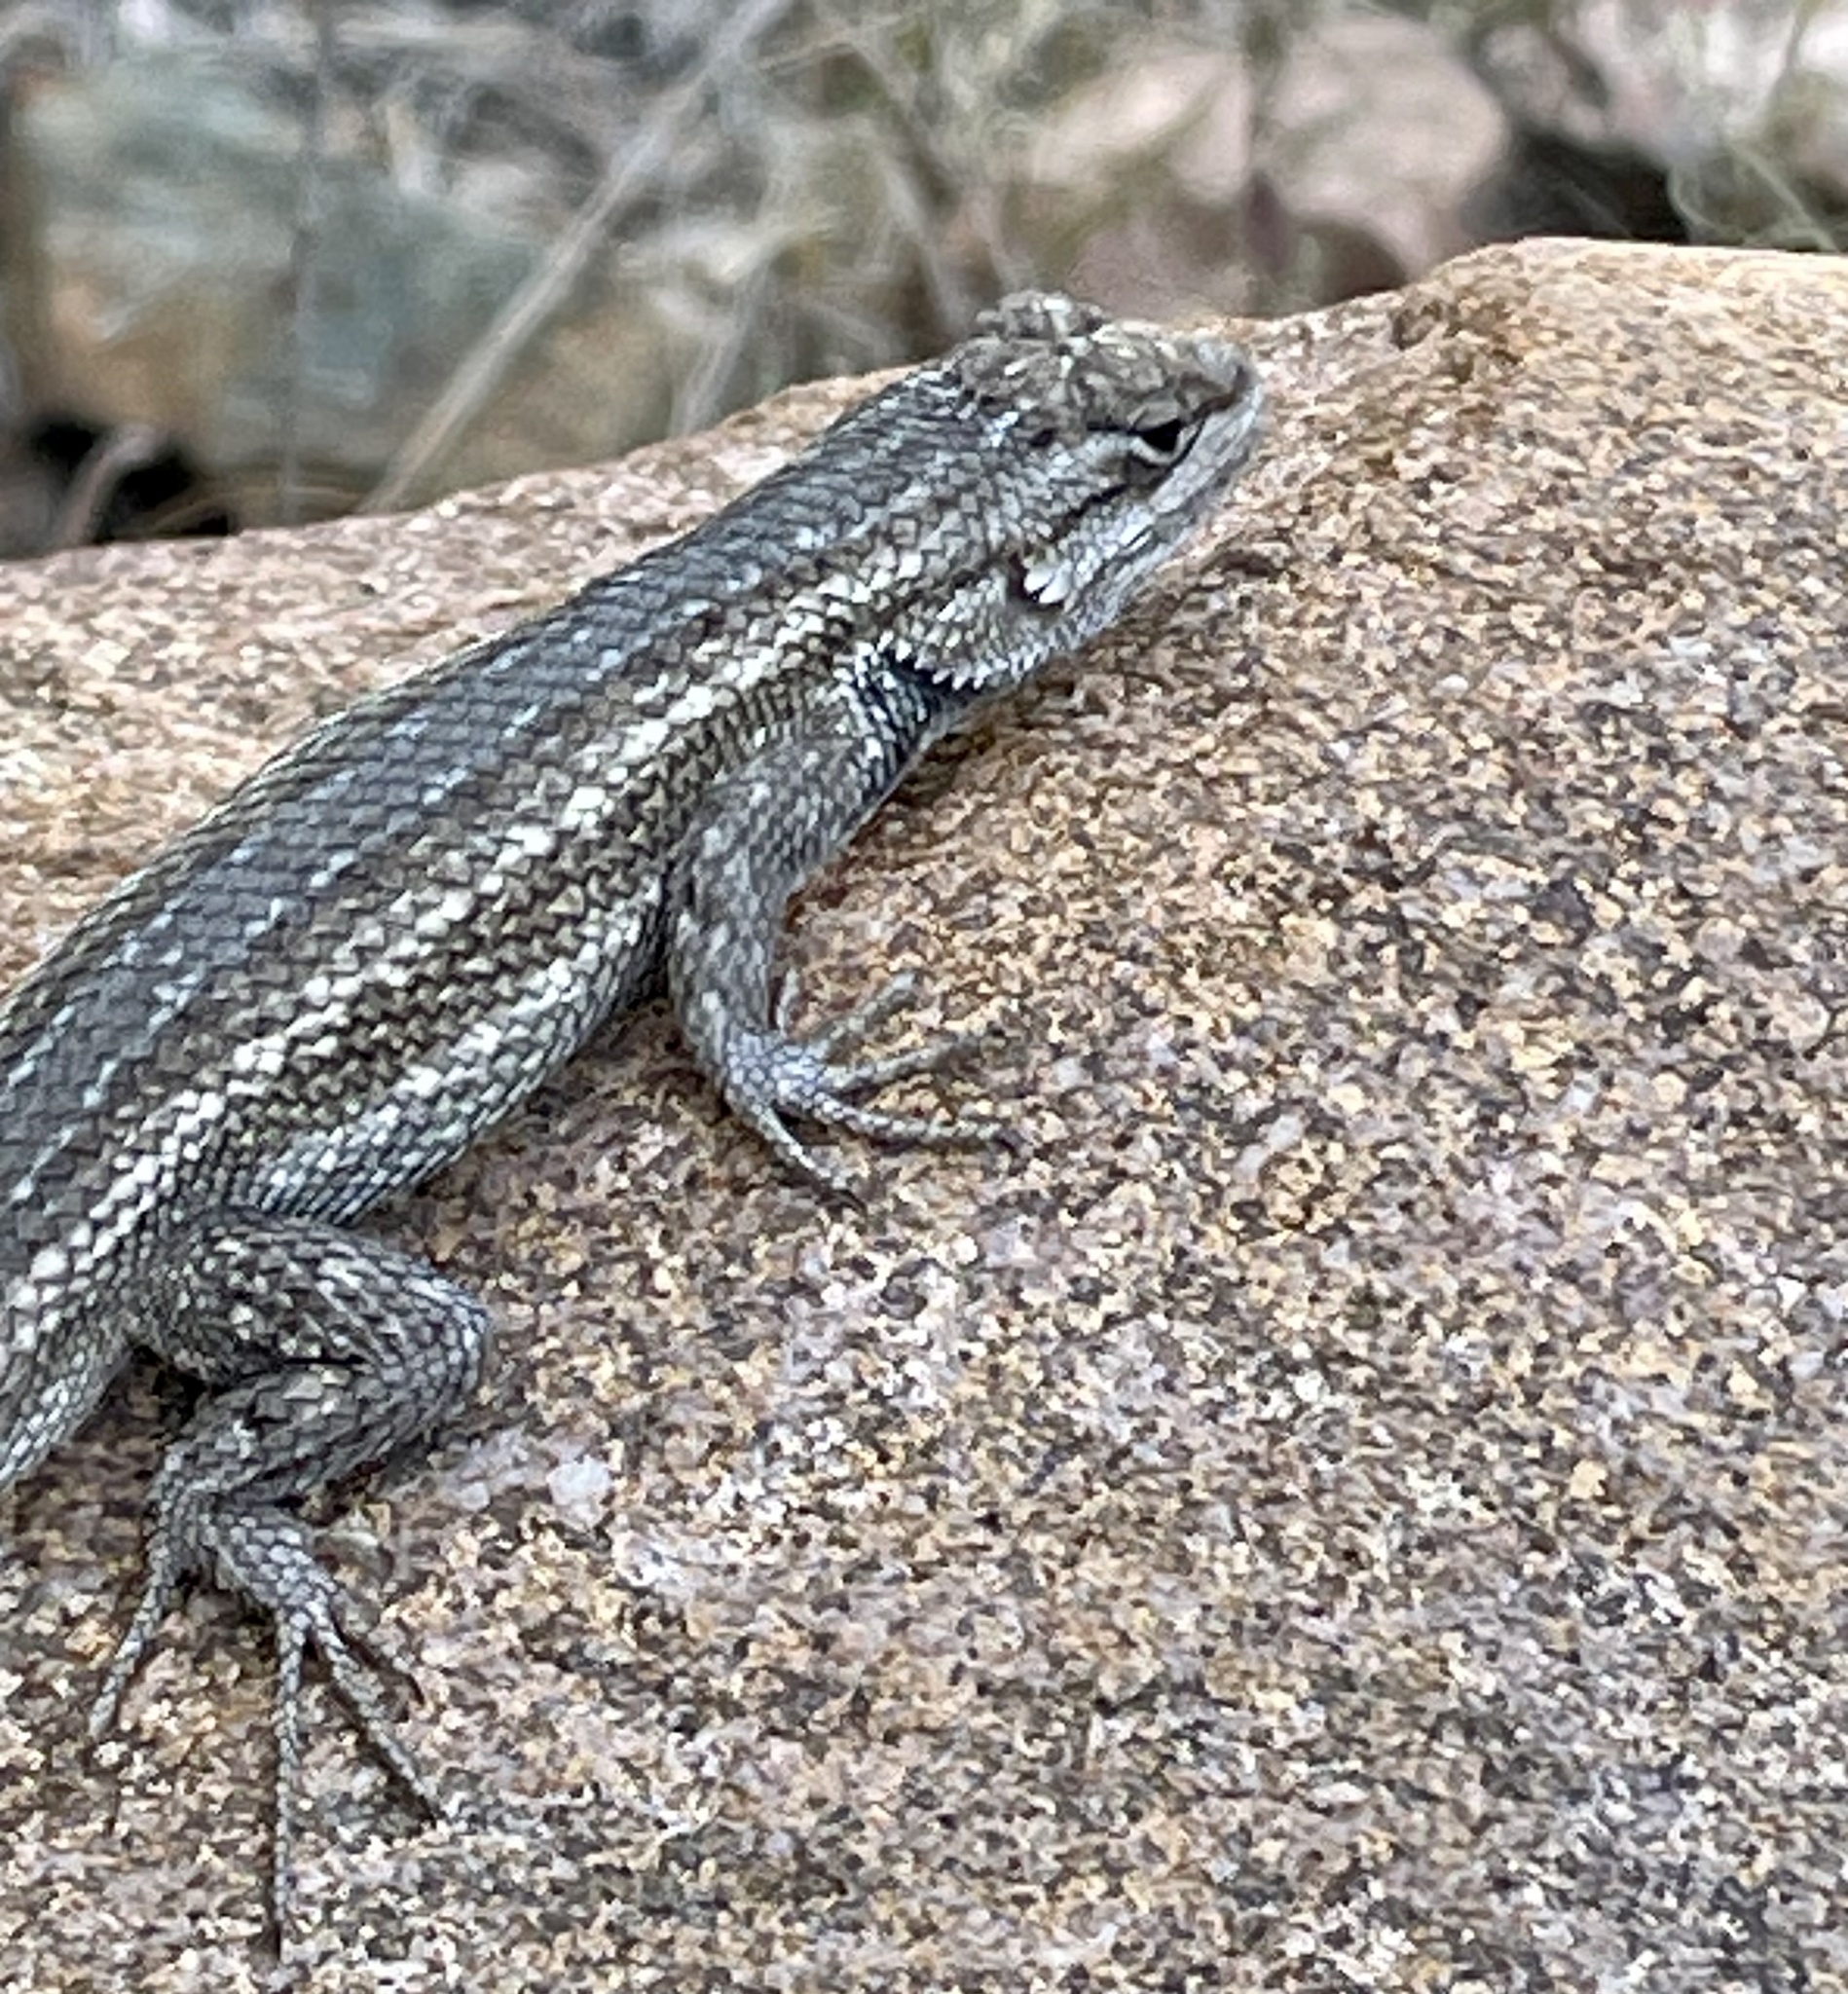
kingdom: Animalia
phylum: Chordata
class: Squamata
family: Phrynosomatidae
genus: Sceloporus
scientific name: Sceloporus cowlesi
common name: White sands prairie lizard
